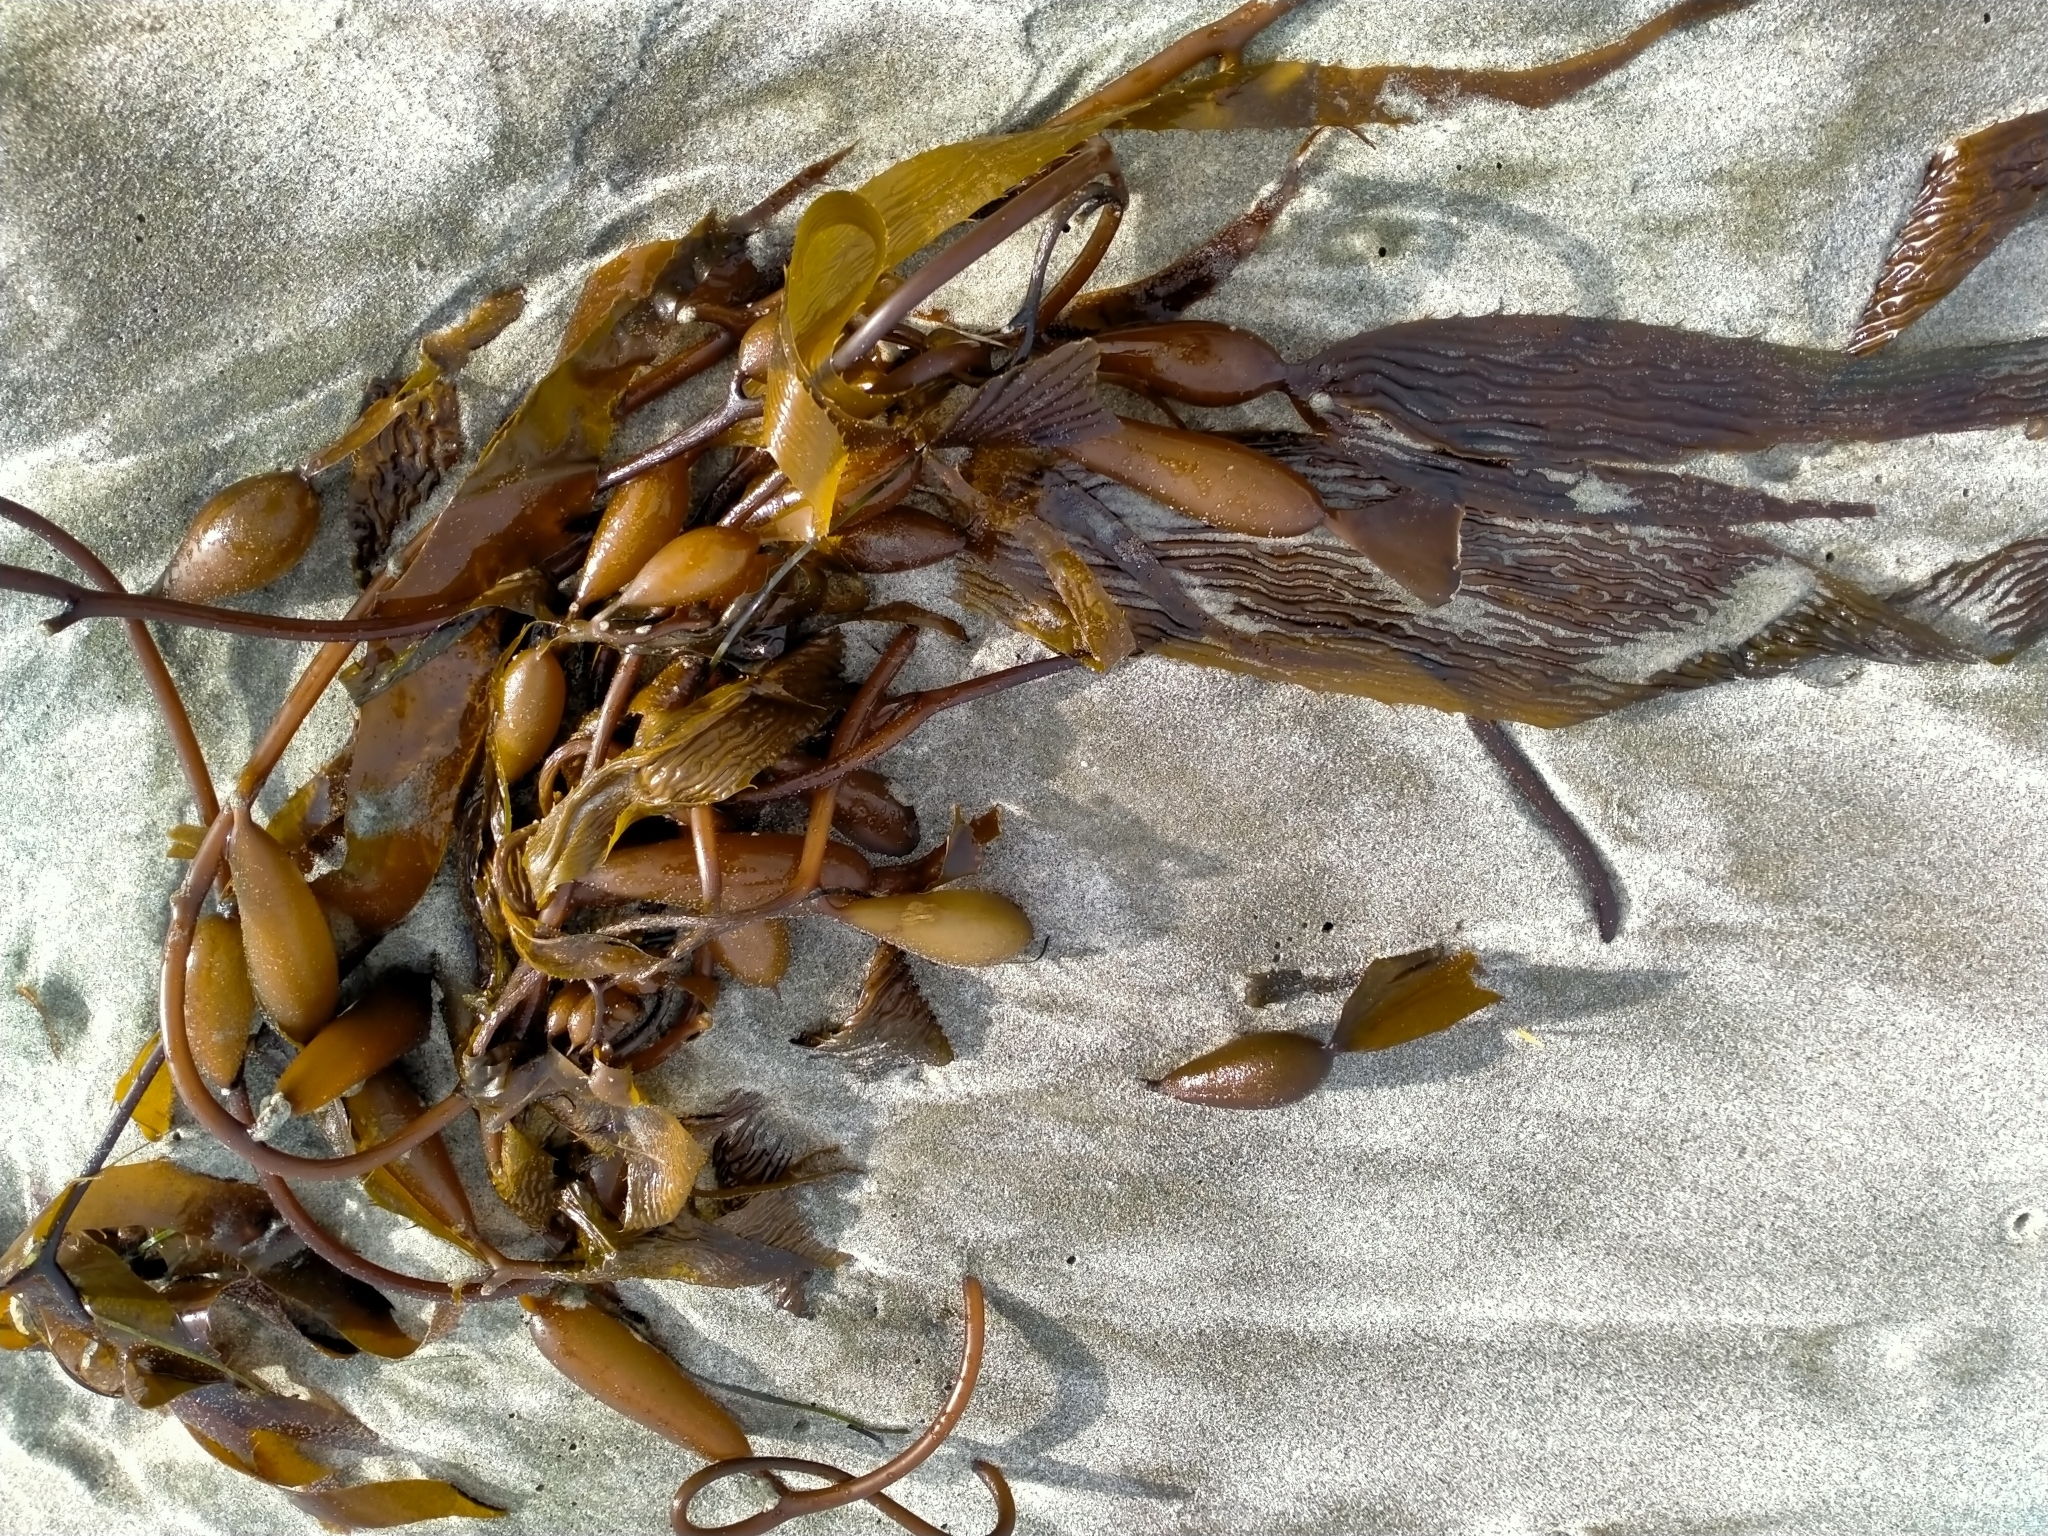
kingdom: Chromista
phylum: Ochrophyta
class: Phaeophyceae
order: Laminariales
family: Laminariaceae
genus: Macrocystis
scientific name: Macrocystis pyrifera
